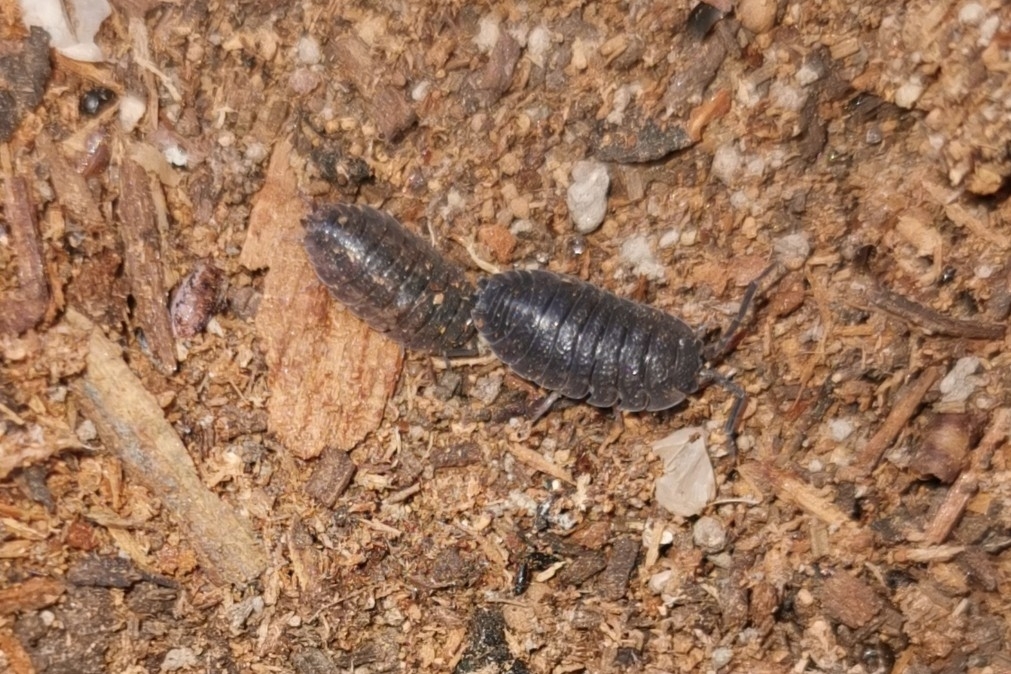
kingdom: Animalia
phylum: Arthropoda
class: Malacostraca
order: Isopoda
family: Porcellionidae
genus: Porcellio
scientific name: Porcellio scaber
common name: Common rough woodlouse
